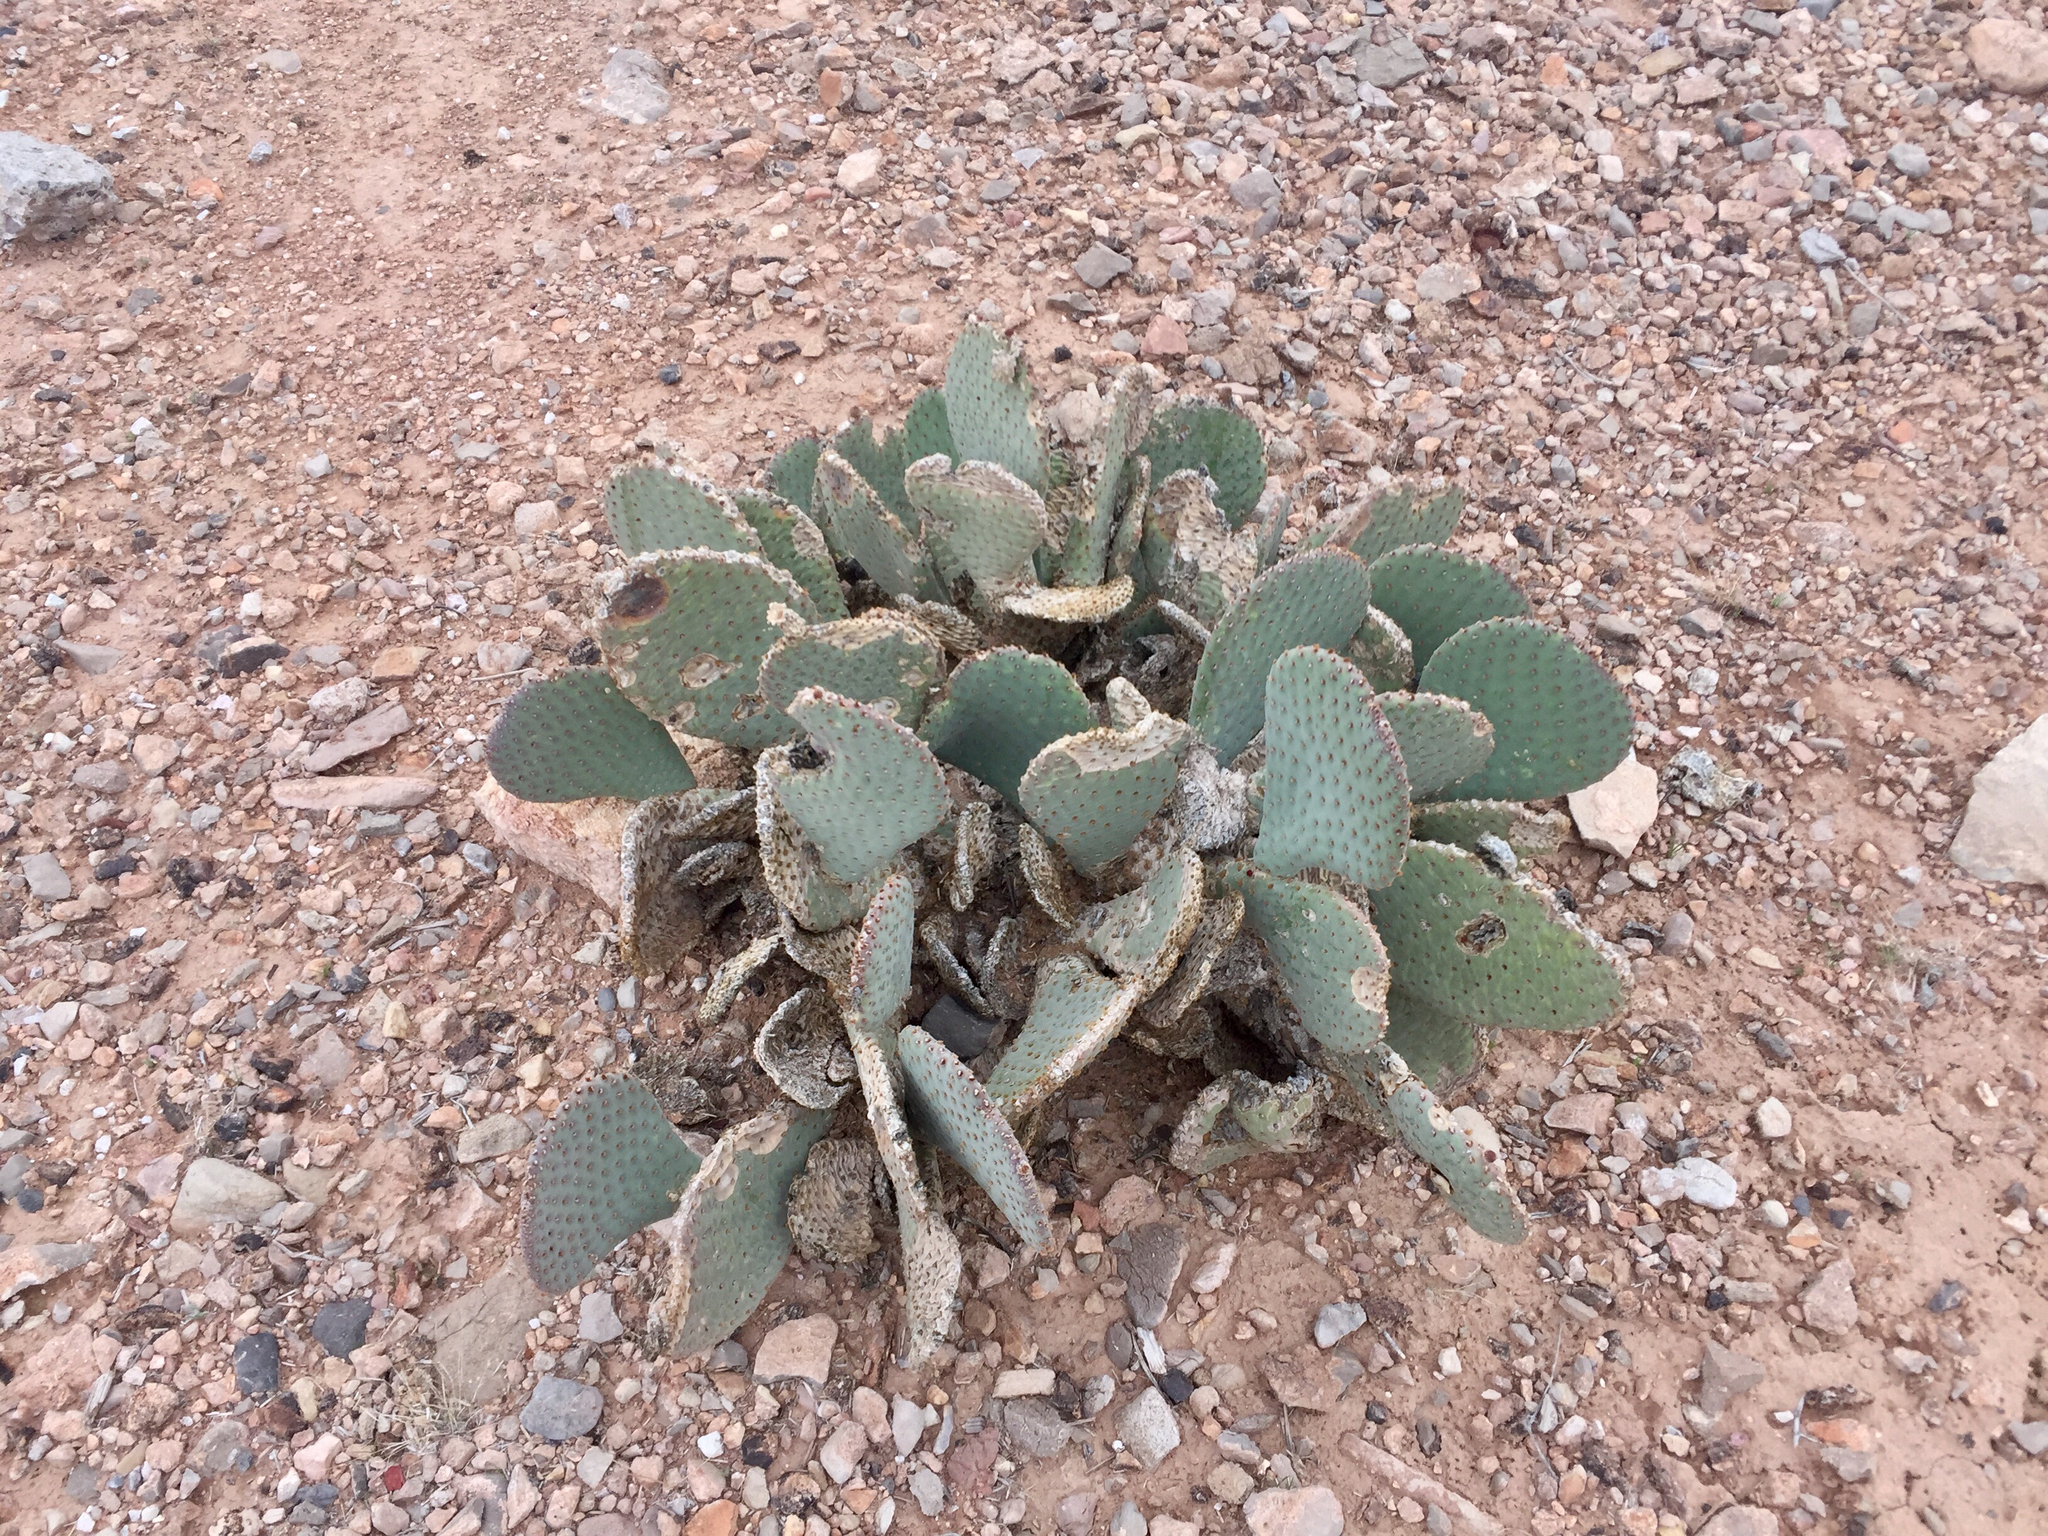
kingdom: Plantae
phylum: Tracheophyta
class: Magnoliopsida
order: Caryophyllales
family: Cactaceae
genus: Opuntia
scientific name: Opuntia basilaris
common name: Beavertail prickly-pear
